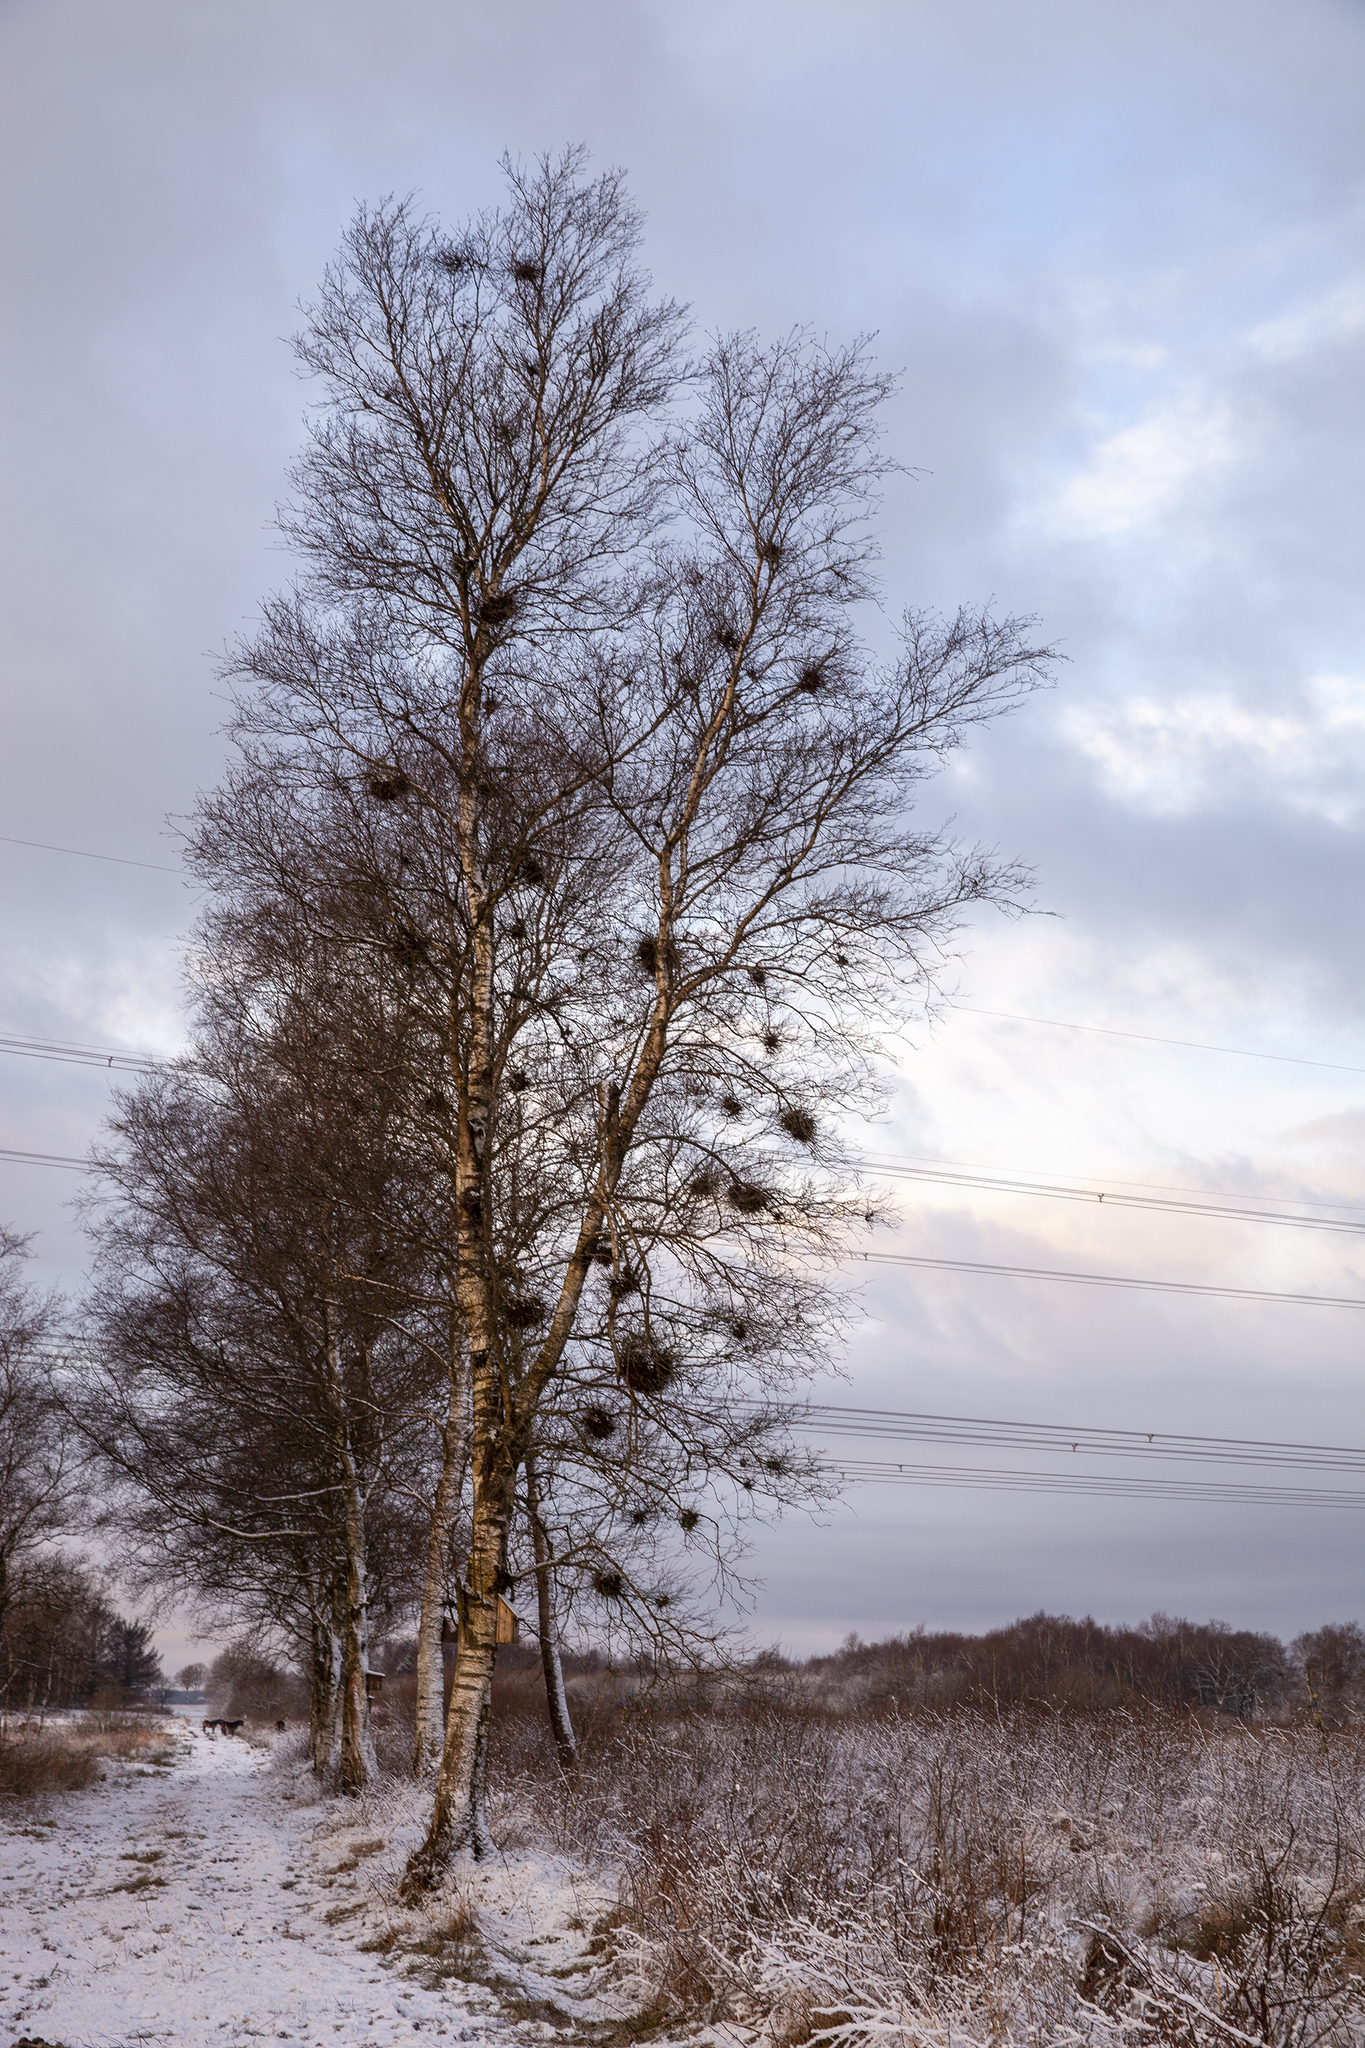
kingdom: Fungi
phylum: Ascomycota
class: Taphrinomycetes
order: Taphrinales
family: Taphrinaceae
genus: Taphrina
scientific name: Taphrina betulina
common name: Birch besom
